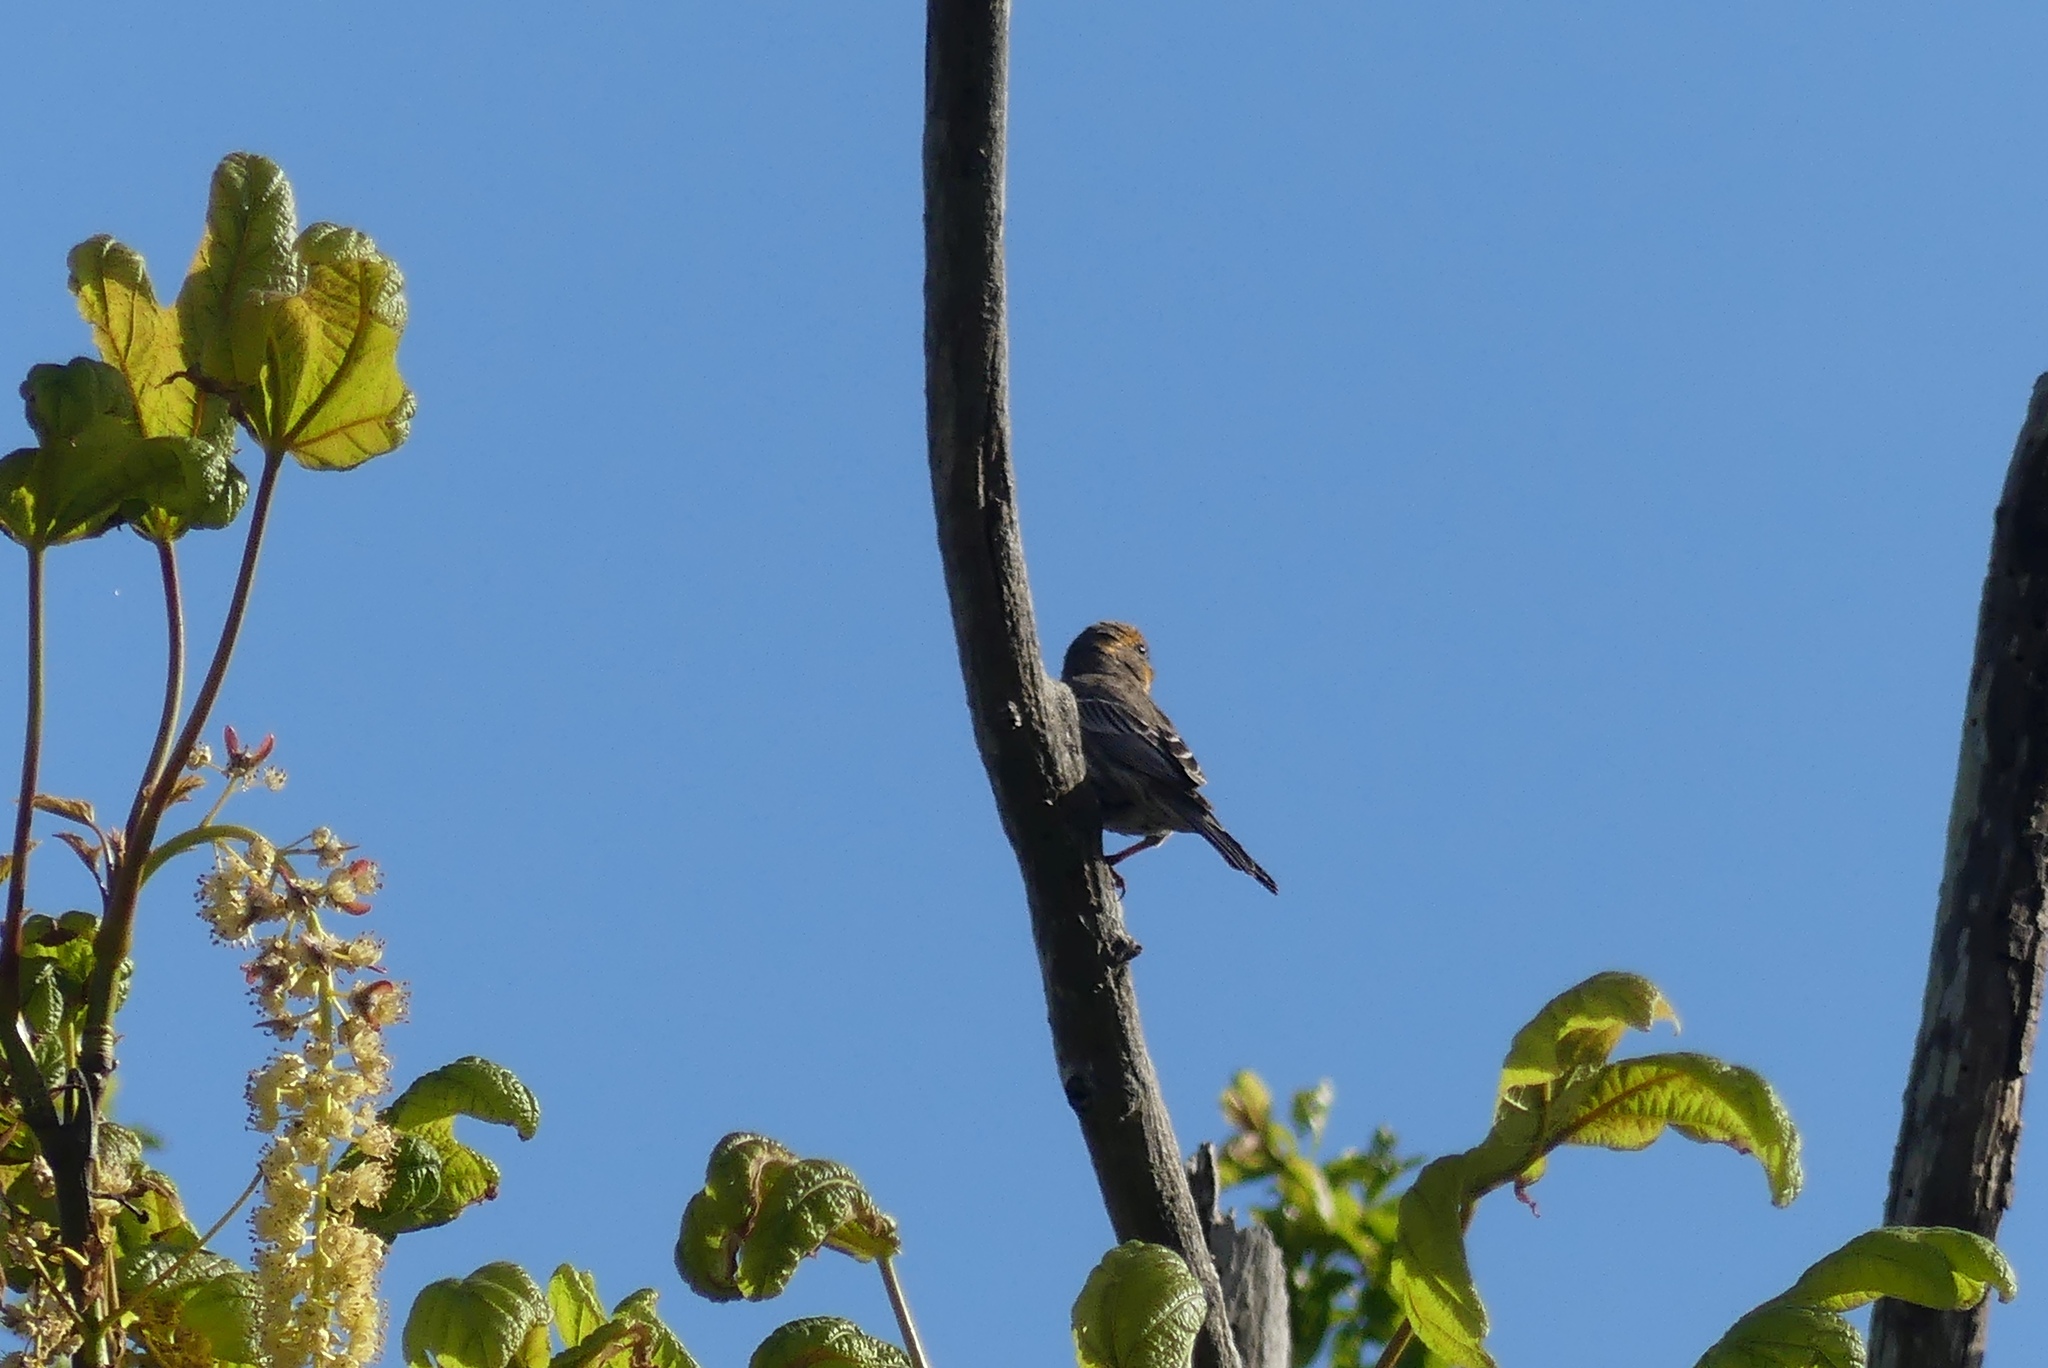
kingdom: Animalia
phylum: Chordata
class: Aves
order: Passeriformes
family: Fringillidae
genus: Haemorhous
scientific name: Haemorhous mexicanus
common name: House finch
